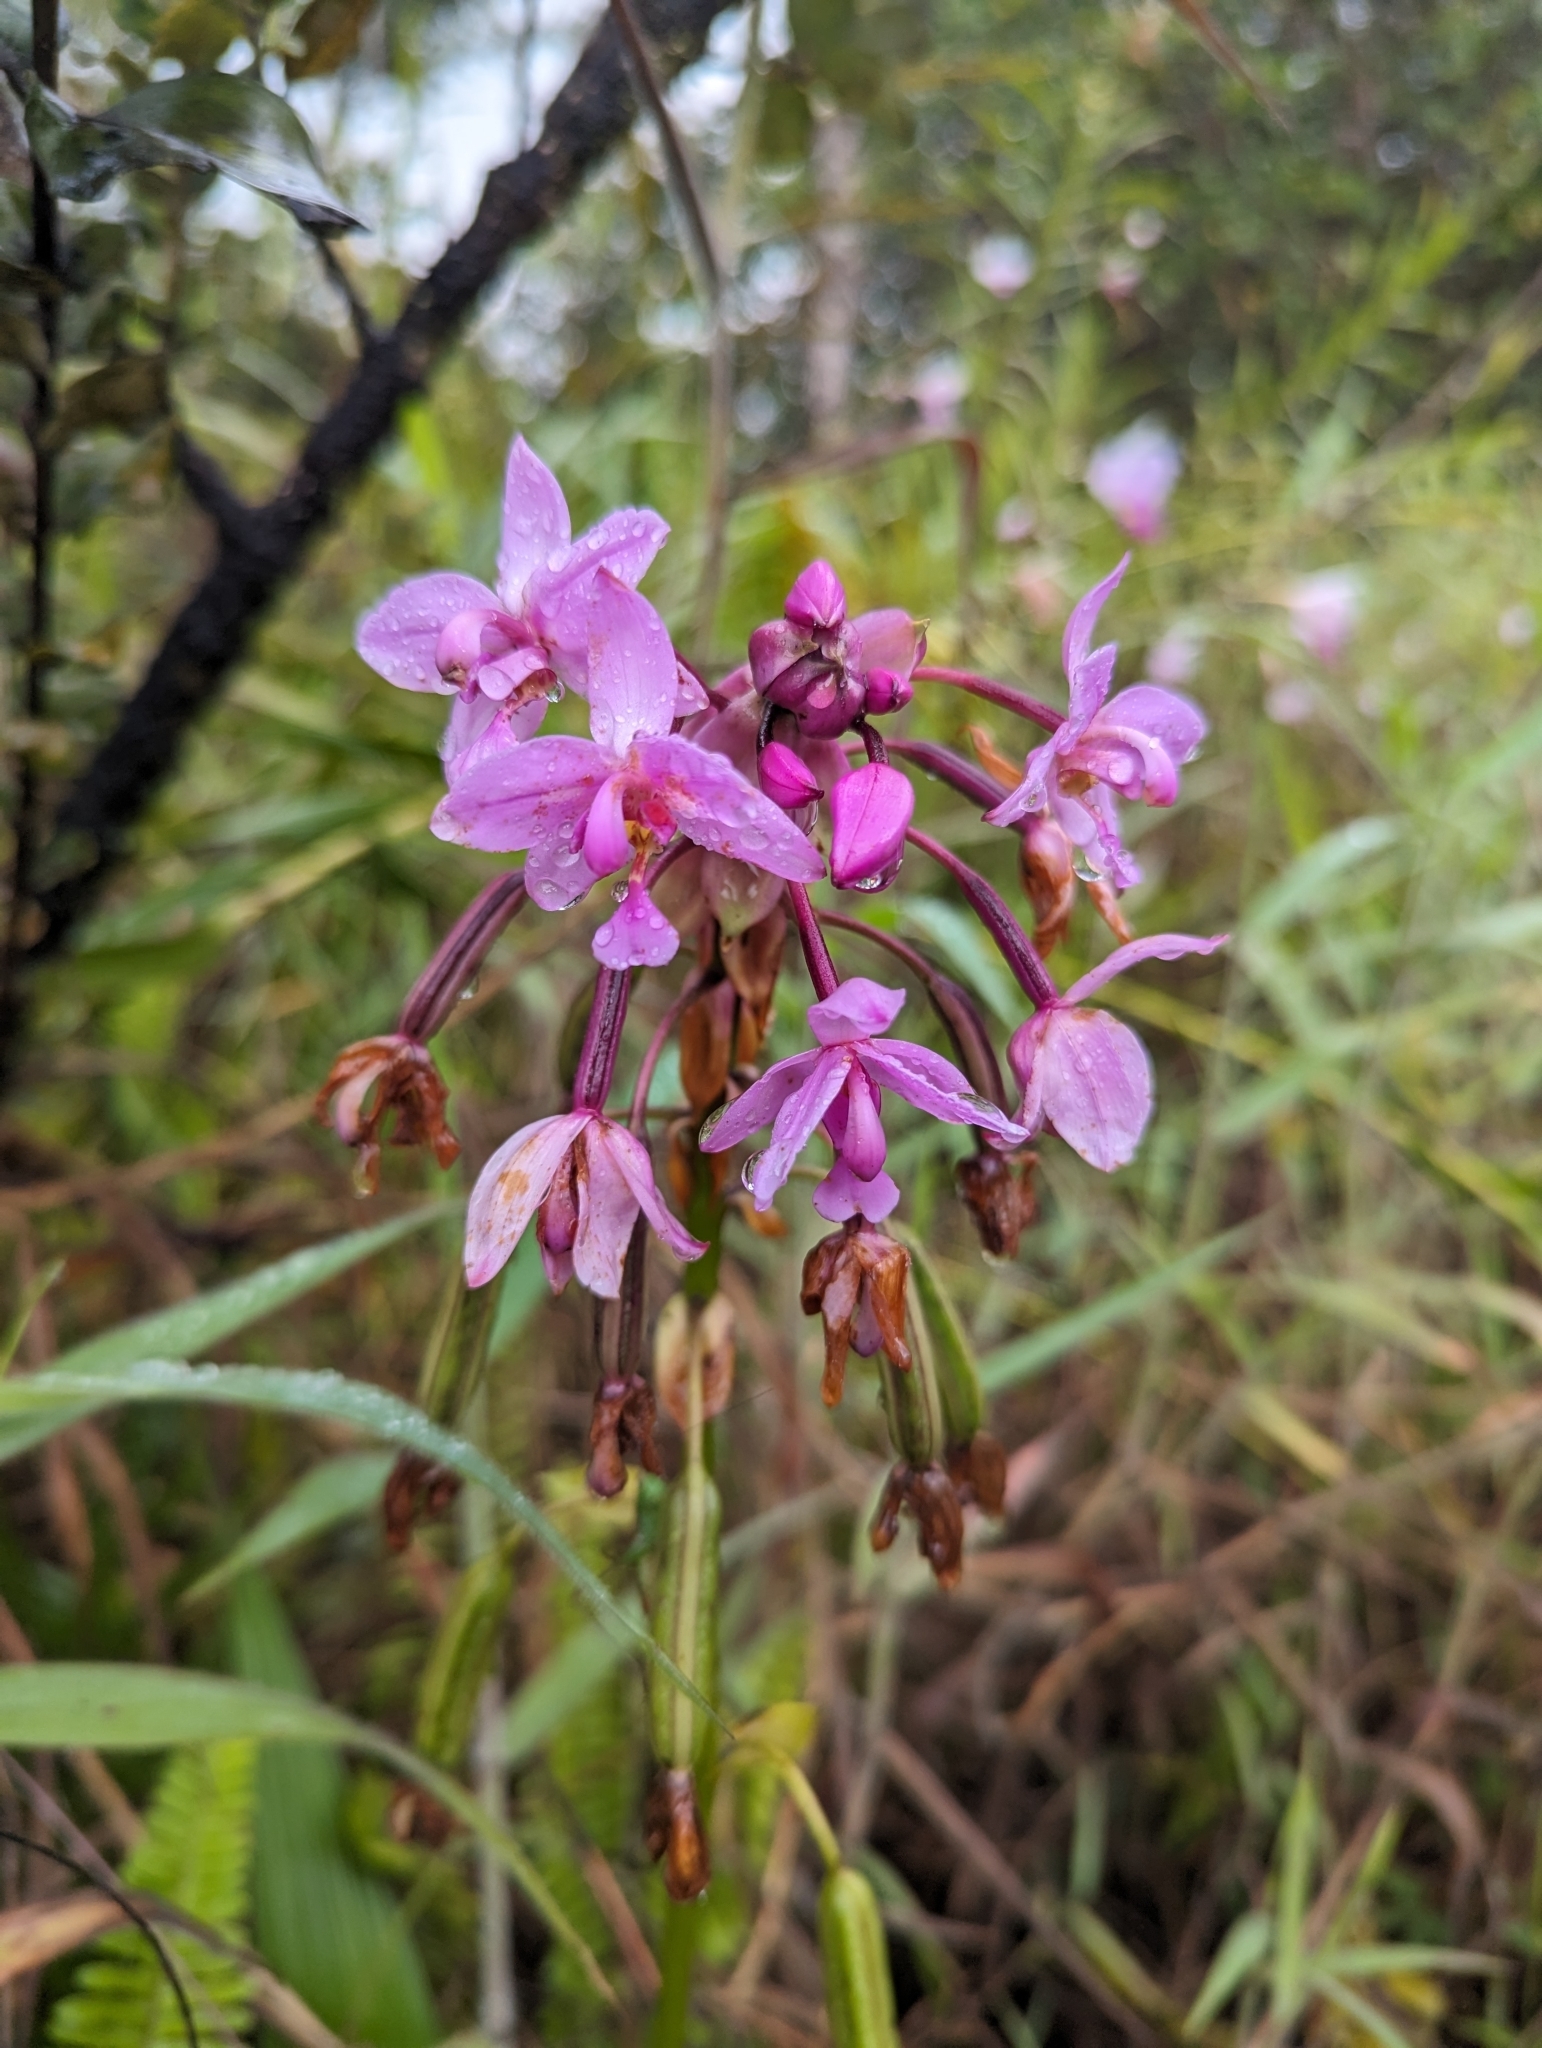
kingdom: Plantae
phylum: Tracheophyta
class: Liliopsida
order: Asparagales
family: Orchidaceae
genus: Spathoglottis
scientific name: Spathoglottis plicata
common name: Philippine ground orchid
